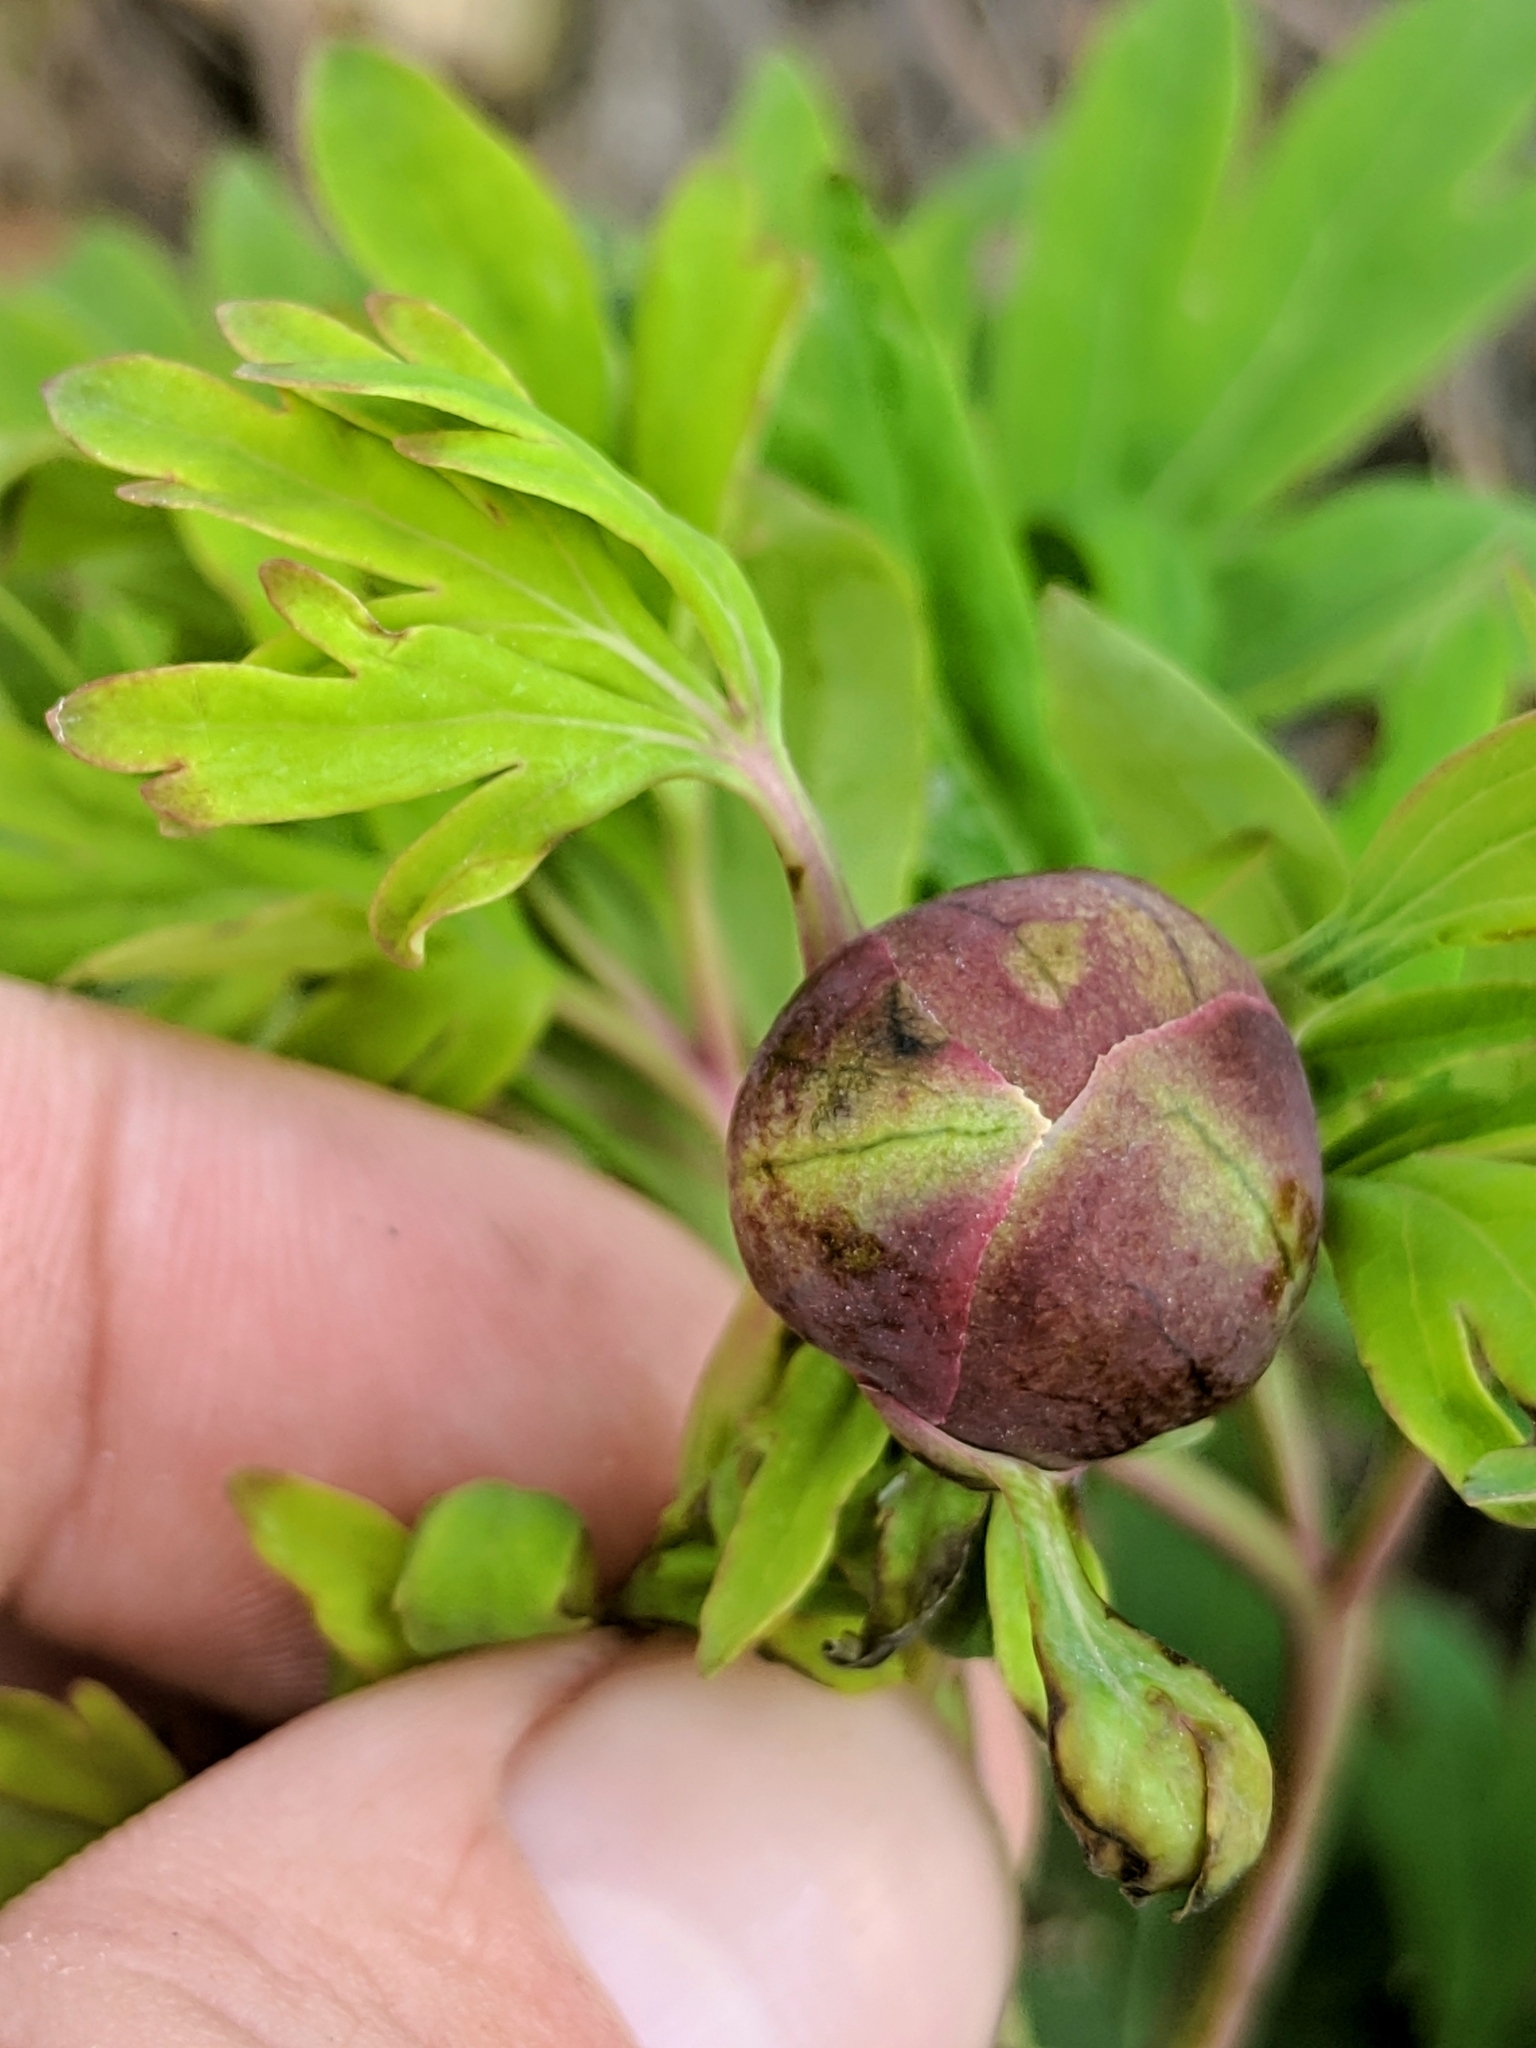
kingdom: Plantae
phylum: Tracheophyta
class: Magnoliopsida
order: Saxifragales
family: Paeoniaceae
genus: Paeonia
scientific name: Paeonia californica
